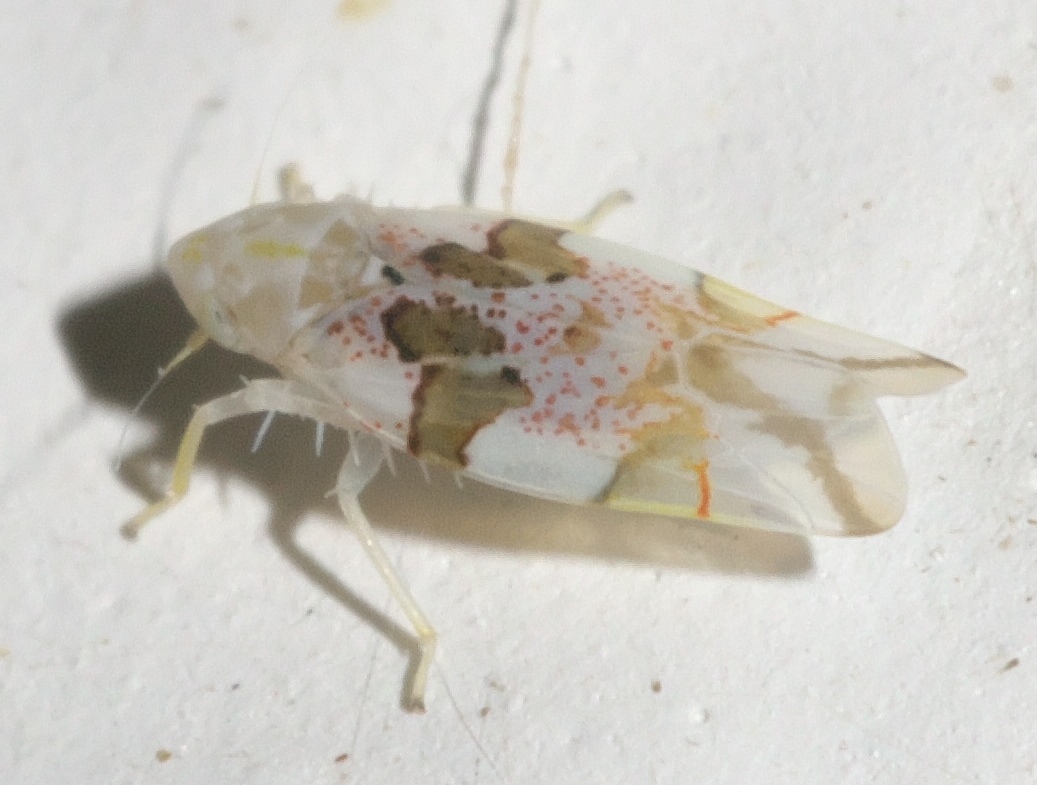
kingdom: Animalia
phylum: Arthropoda
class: Insecta
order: Hemiptera
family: Cicadellidae
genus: Hymetta
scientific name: Hymetta trifasciata
